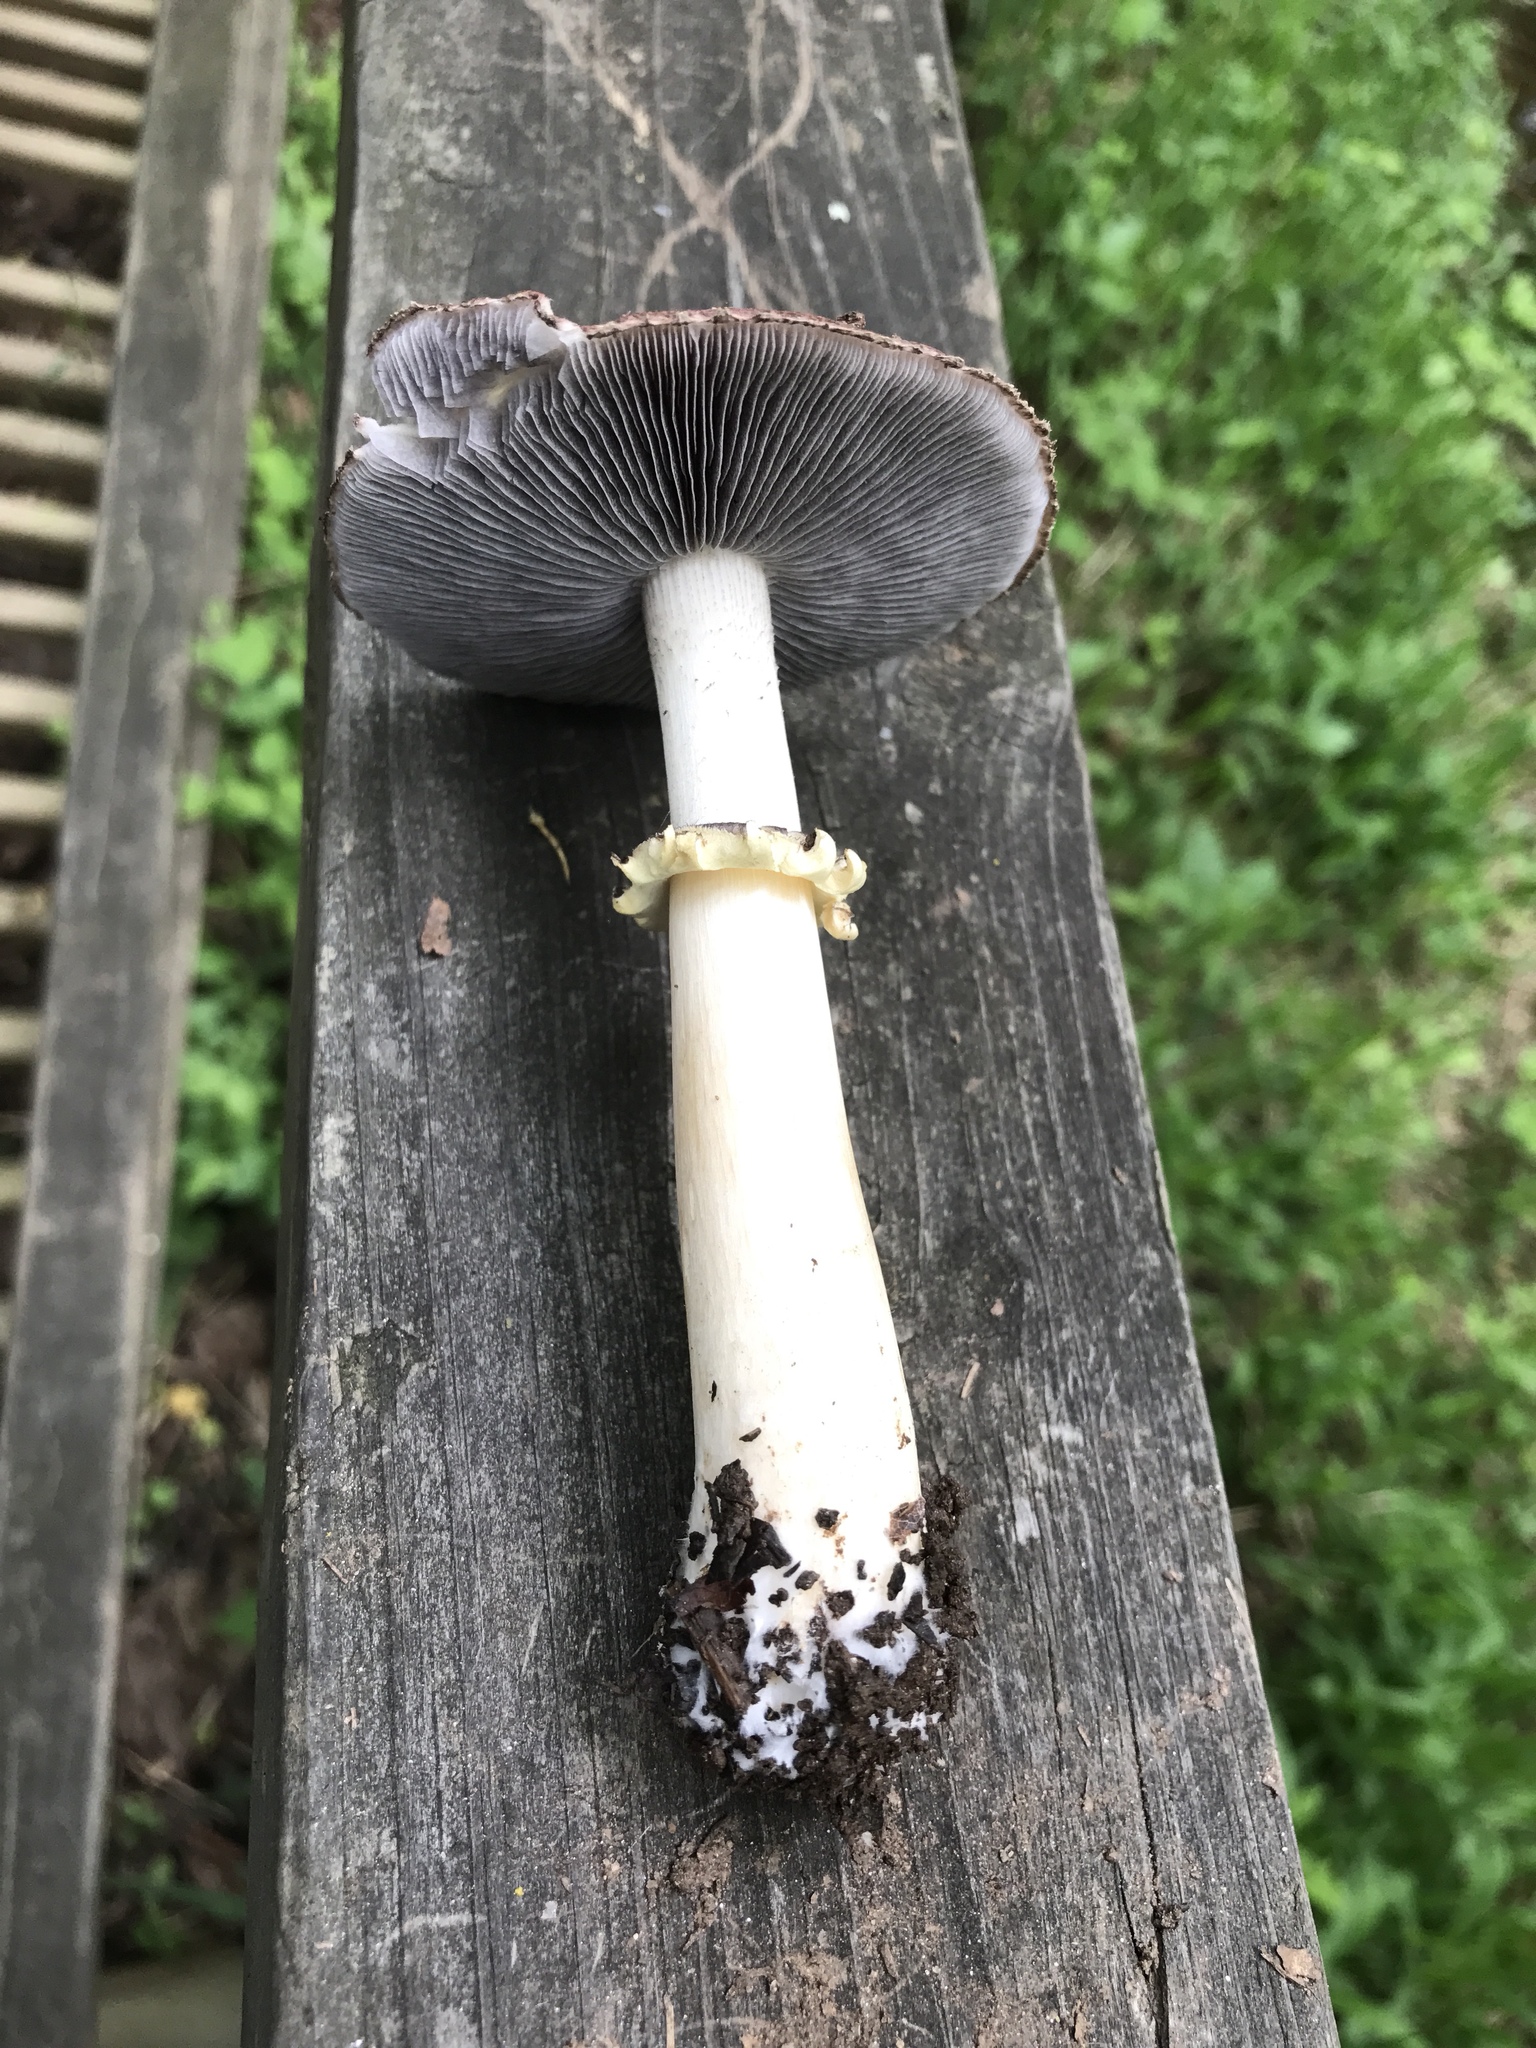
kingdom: Fungi
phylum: Basidiomycota
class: Agaricomycetes
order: Agaricales
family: Strophariaceae
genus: Stropharia
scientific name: Stropharia rugosoannulata
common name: Wine roundhead
